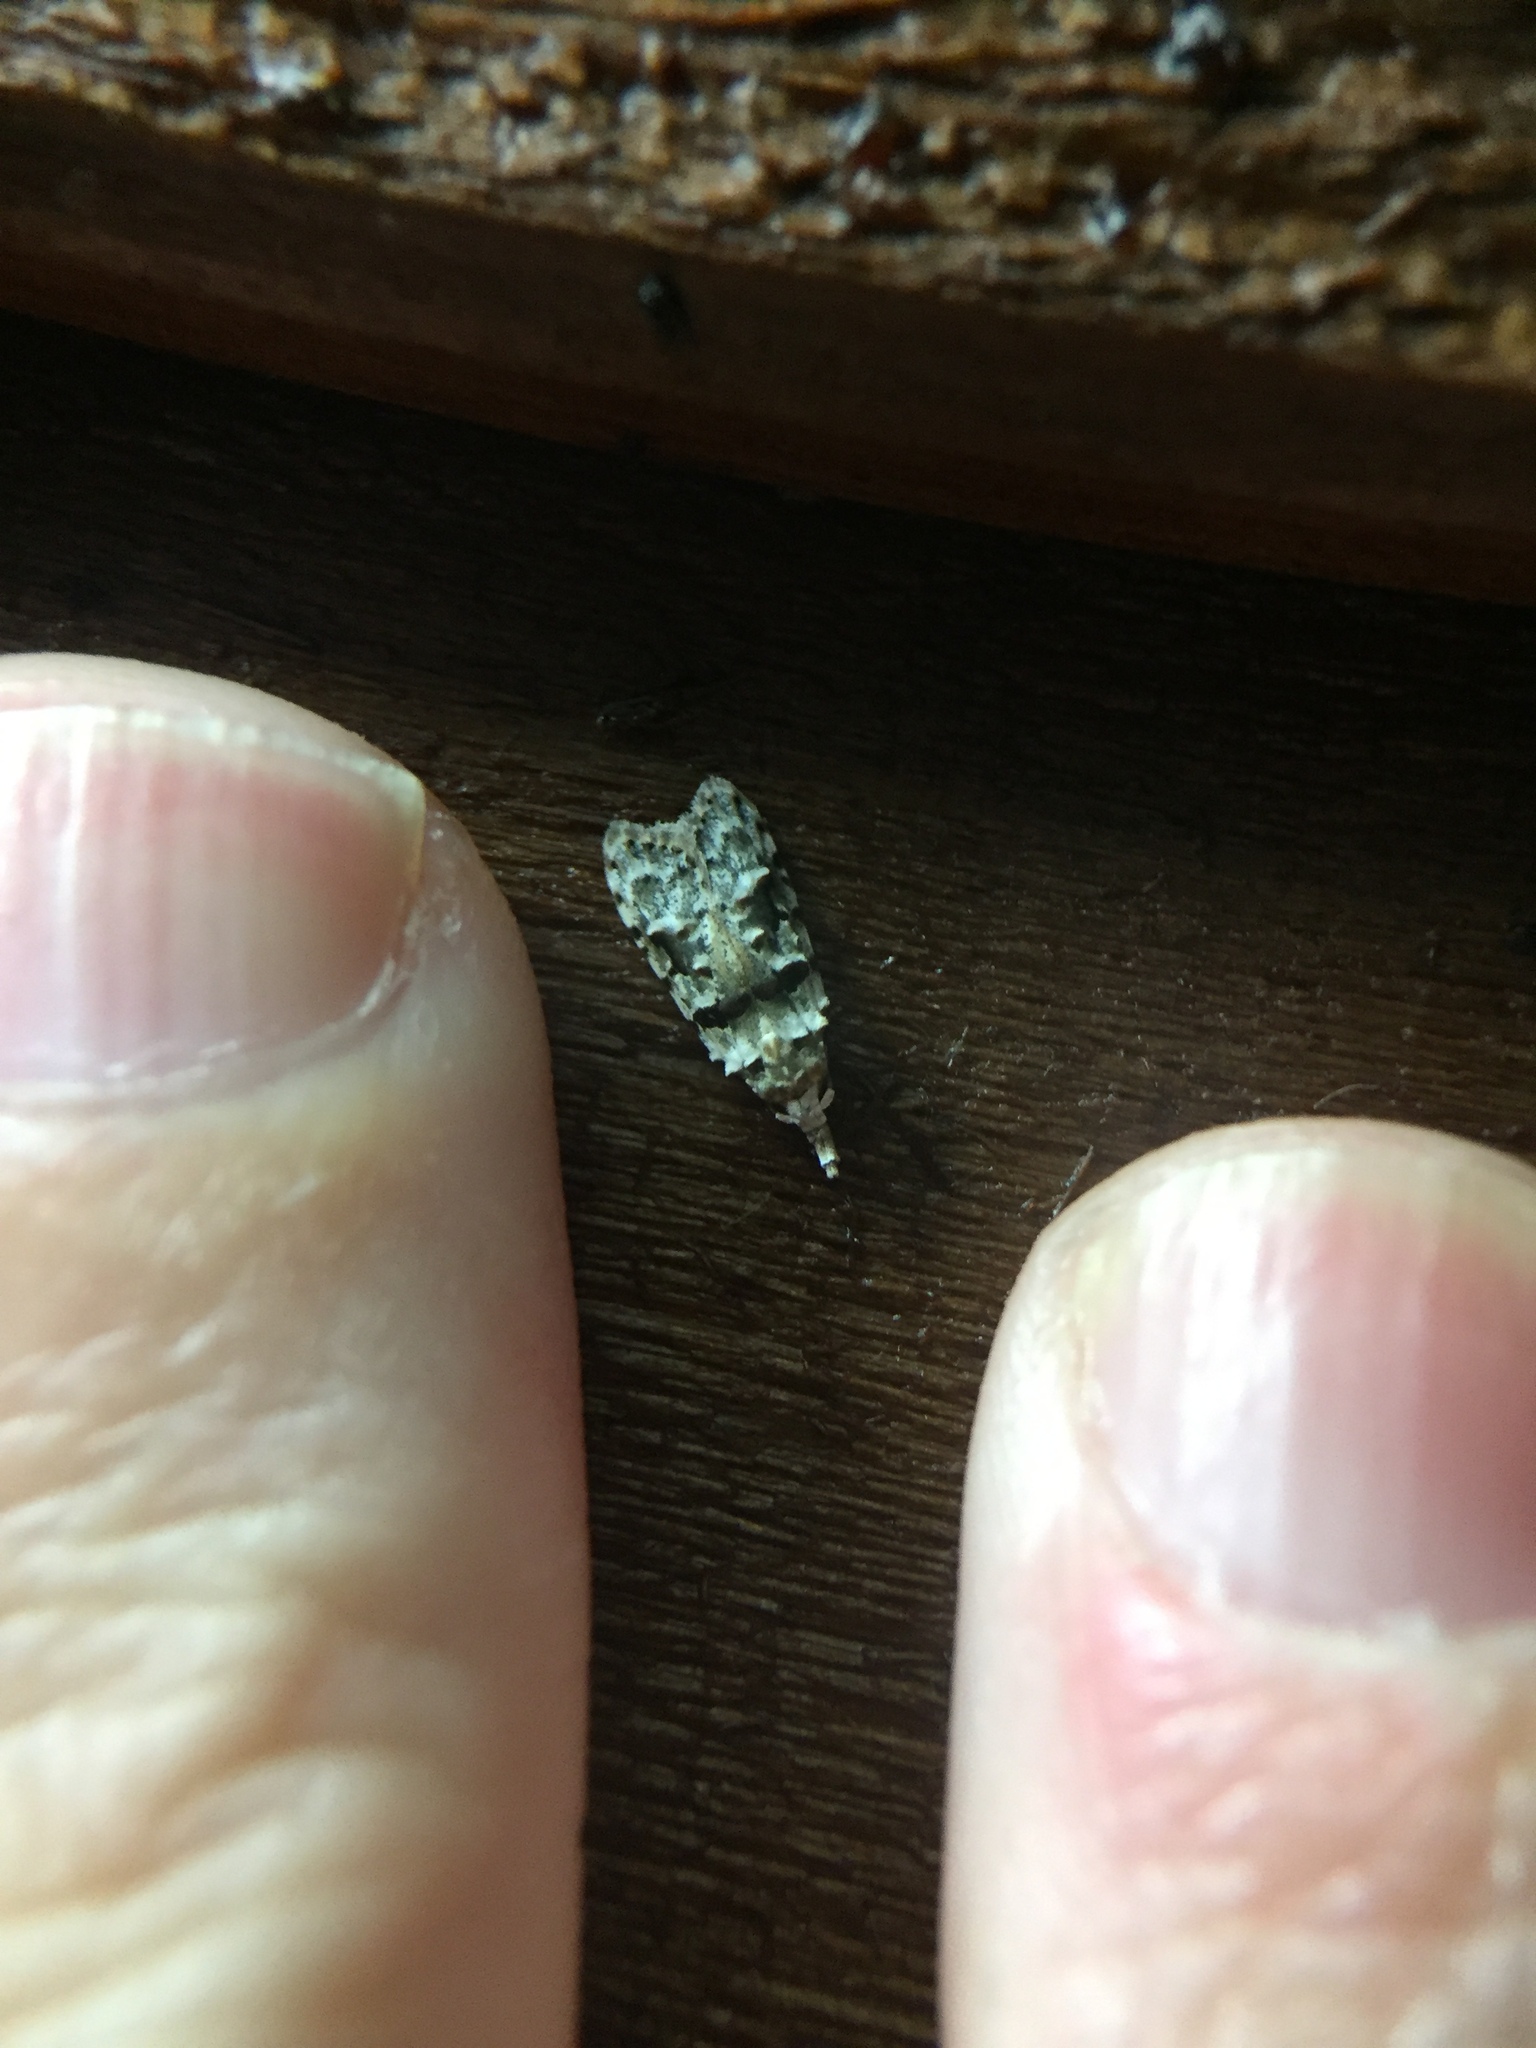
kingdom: Animalia
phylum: Arthropoda
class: Insecta
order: Lepidoptera
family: Carposinidae
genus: Coscinoptycha
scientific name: Coscinoptycha improbana
